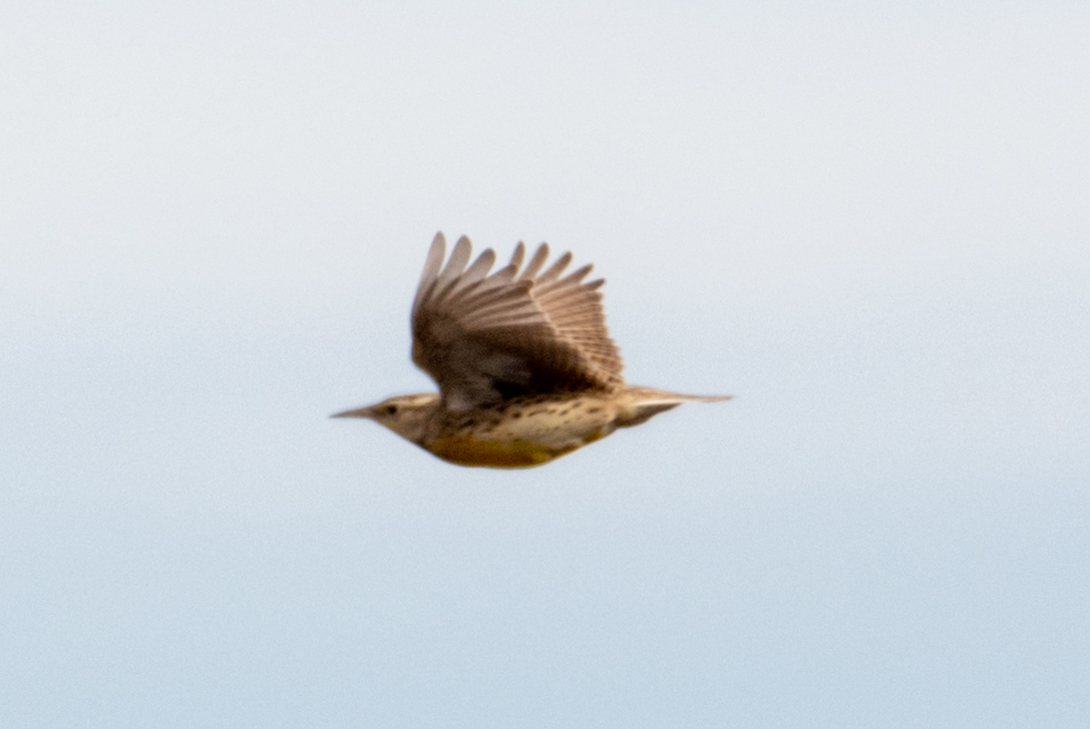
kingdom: Animalia
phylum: Chordata
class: Aves
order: Passeriformes
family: Icteridae
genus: Sturnella
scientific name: Sturnella neglecta
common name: Western meadowlark
